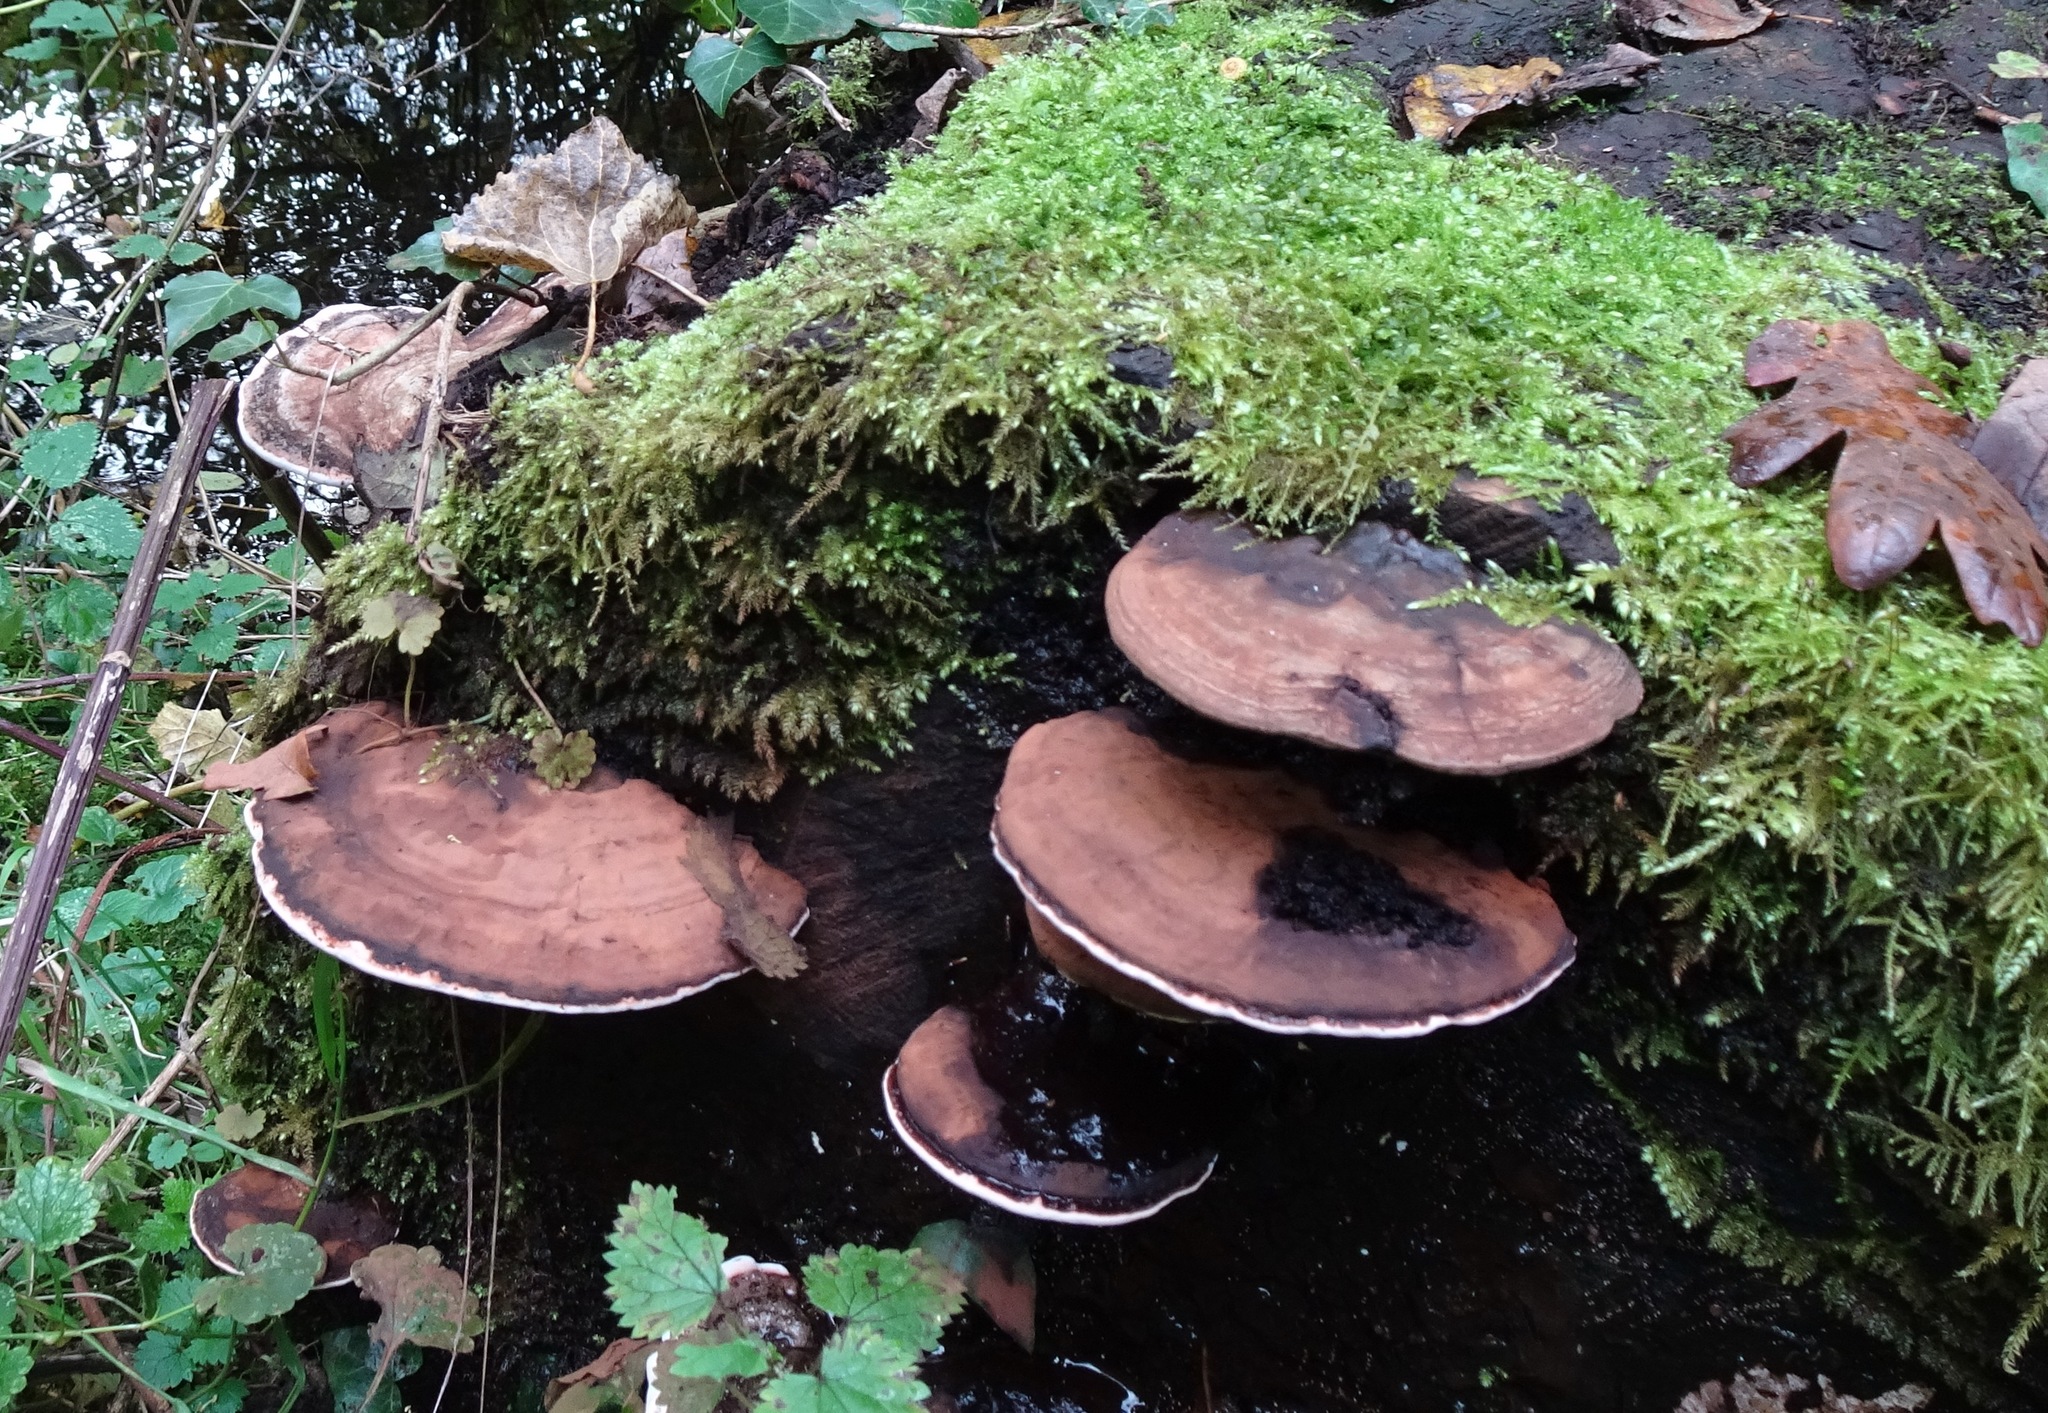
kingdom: Fungi
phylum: Basidiomycota
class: Agaricomycetes
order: Polyporales
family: Polyporaceae
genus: Ganoderma
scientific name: Ganoderma applanatum
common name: Artist's bracket
